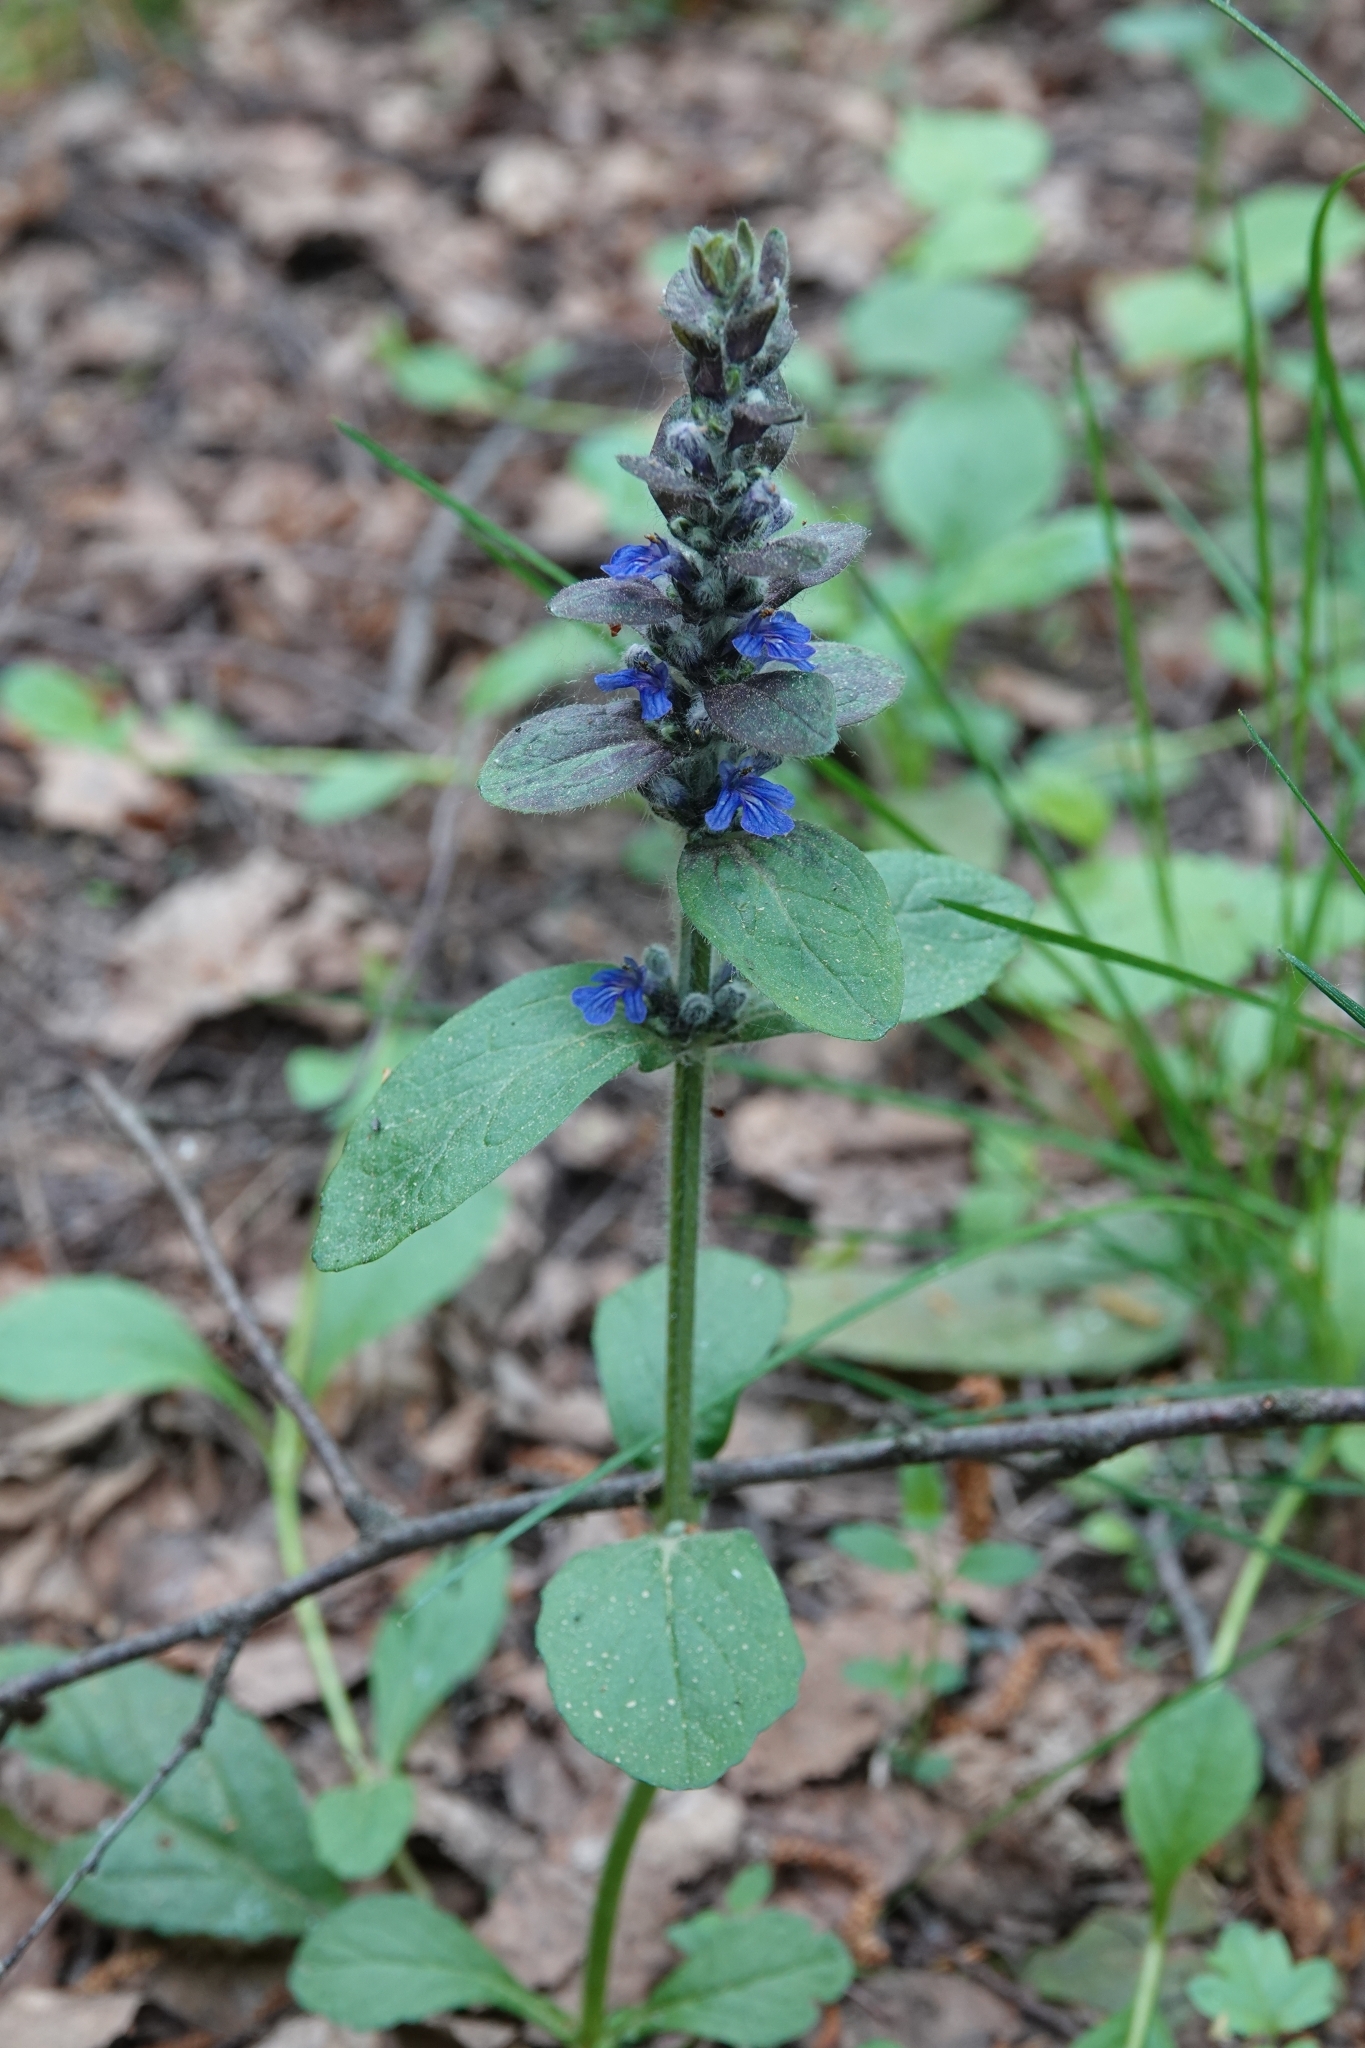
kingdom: Plantae
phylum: Tracheophyta
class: Magnoliopsida
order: Lamiales
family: Lamiaceae
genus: Ajuga
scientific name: Ajuga reptans
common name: Bugle
